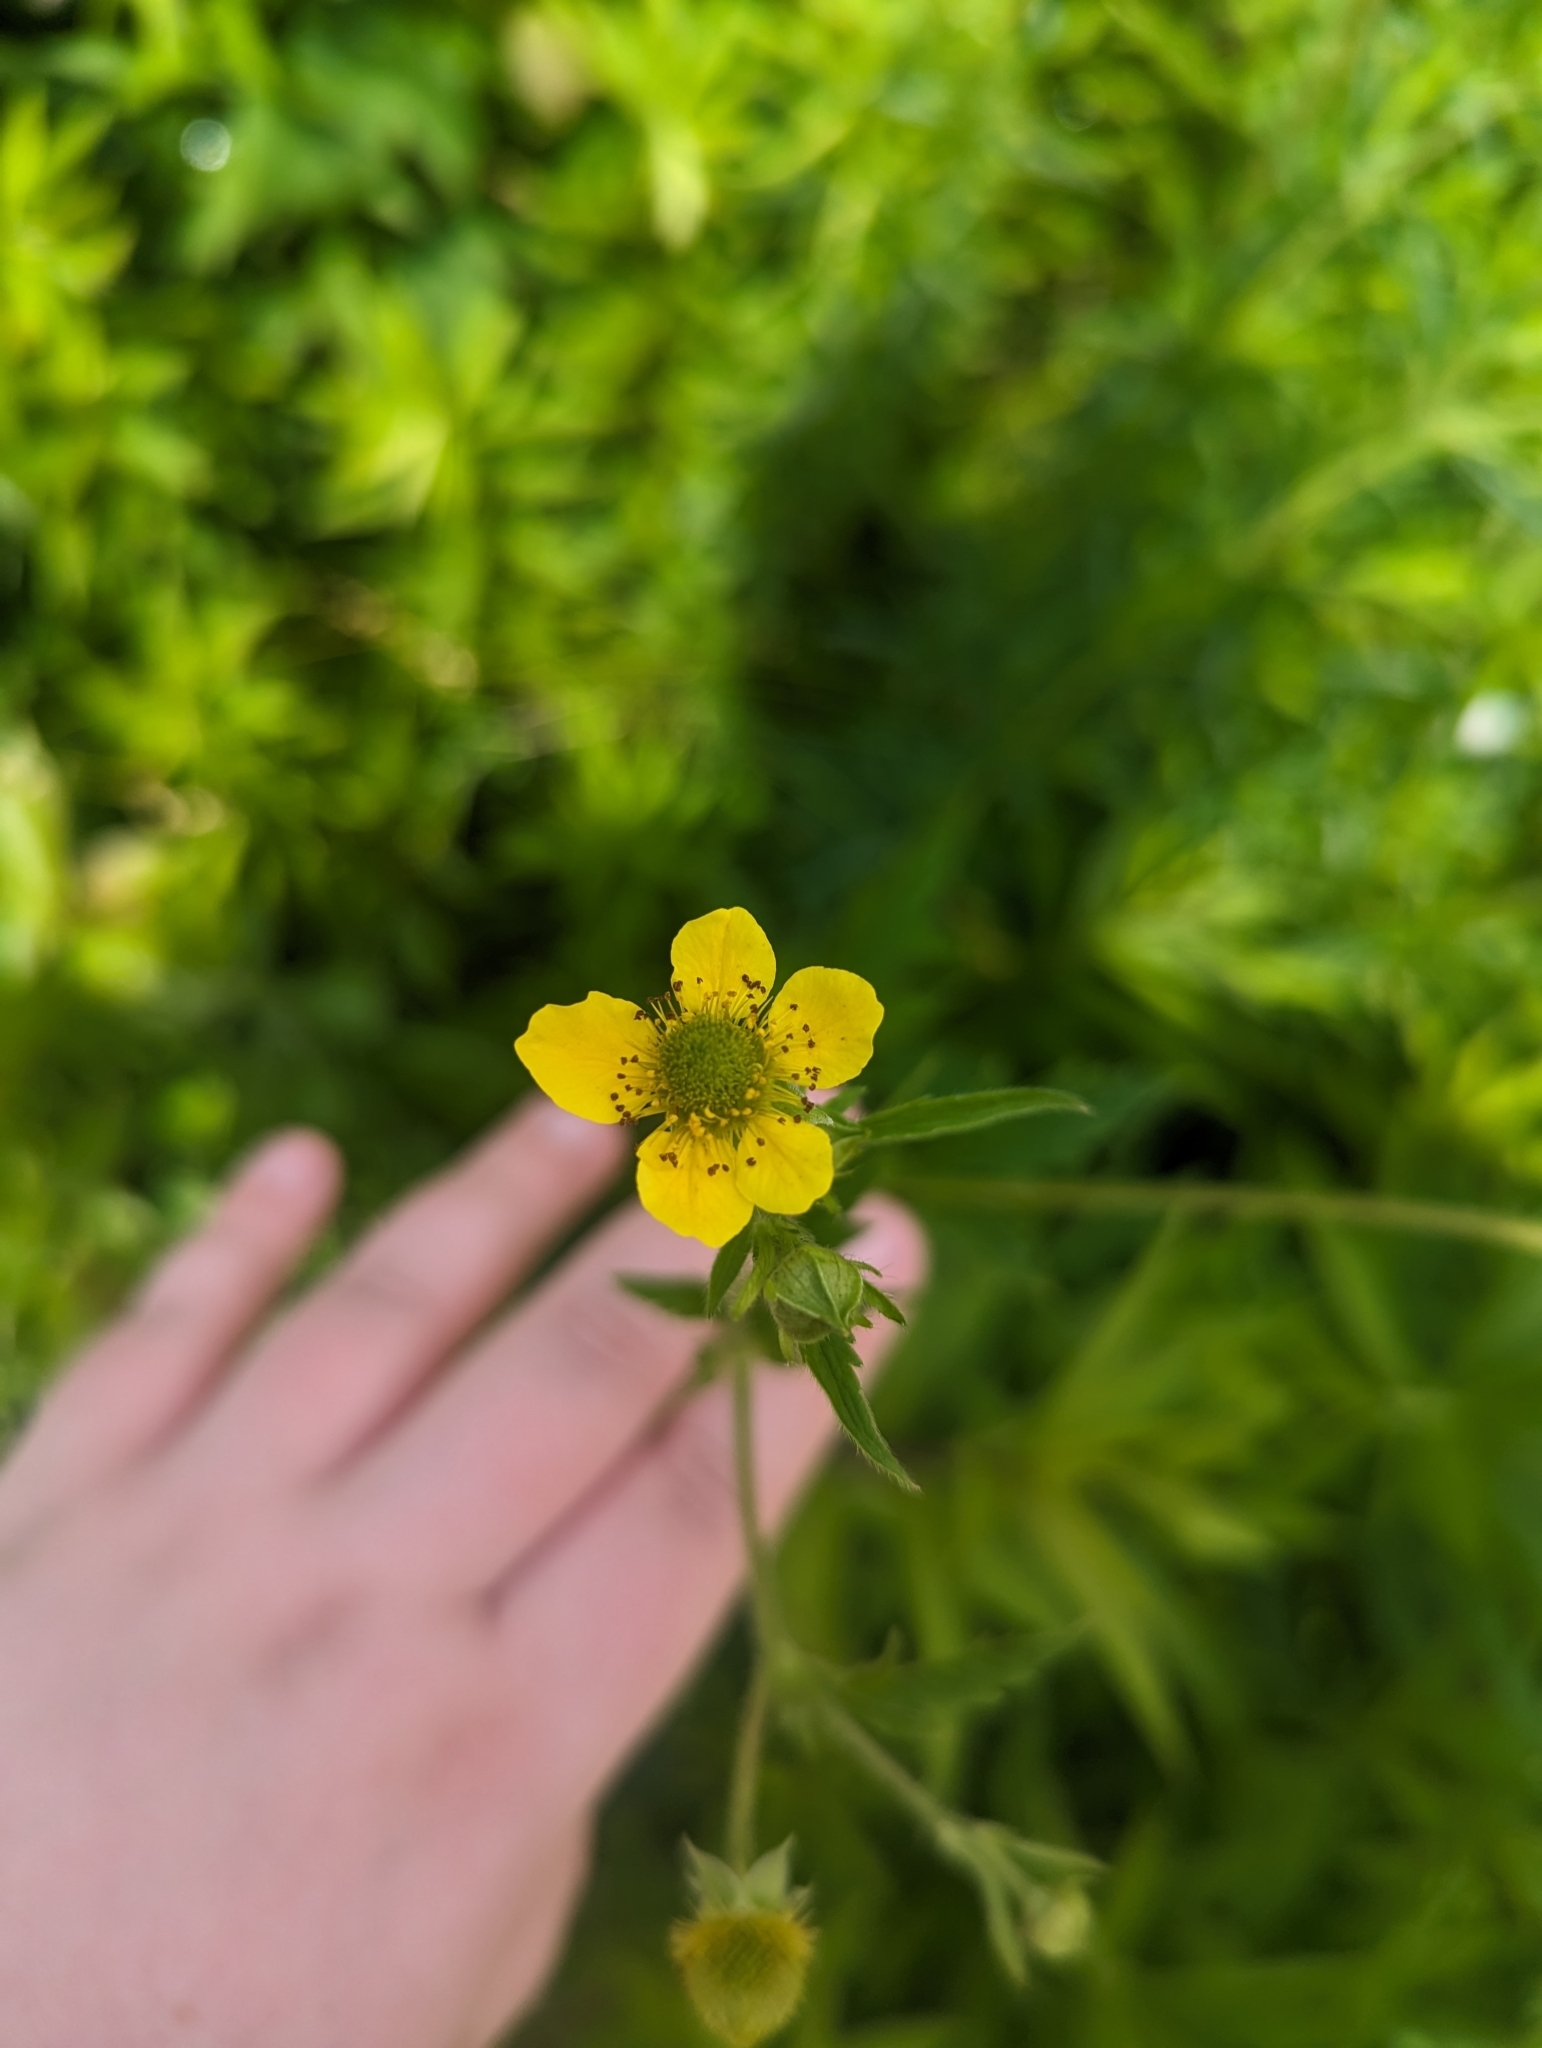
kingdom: Plantae
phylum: Tracheophyta
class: Magnoliopsida
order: Rosales
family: Rosaceae
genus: Geum
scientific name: Geum aleppicum
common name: Yellow avens
